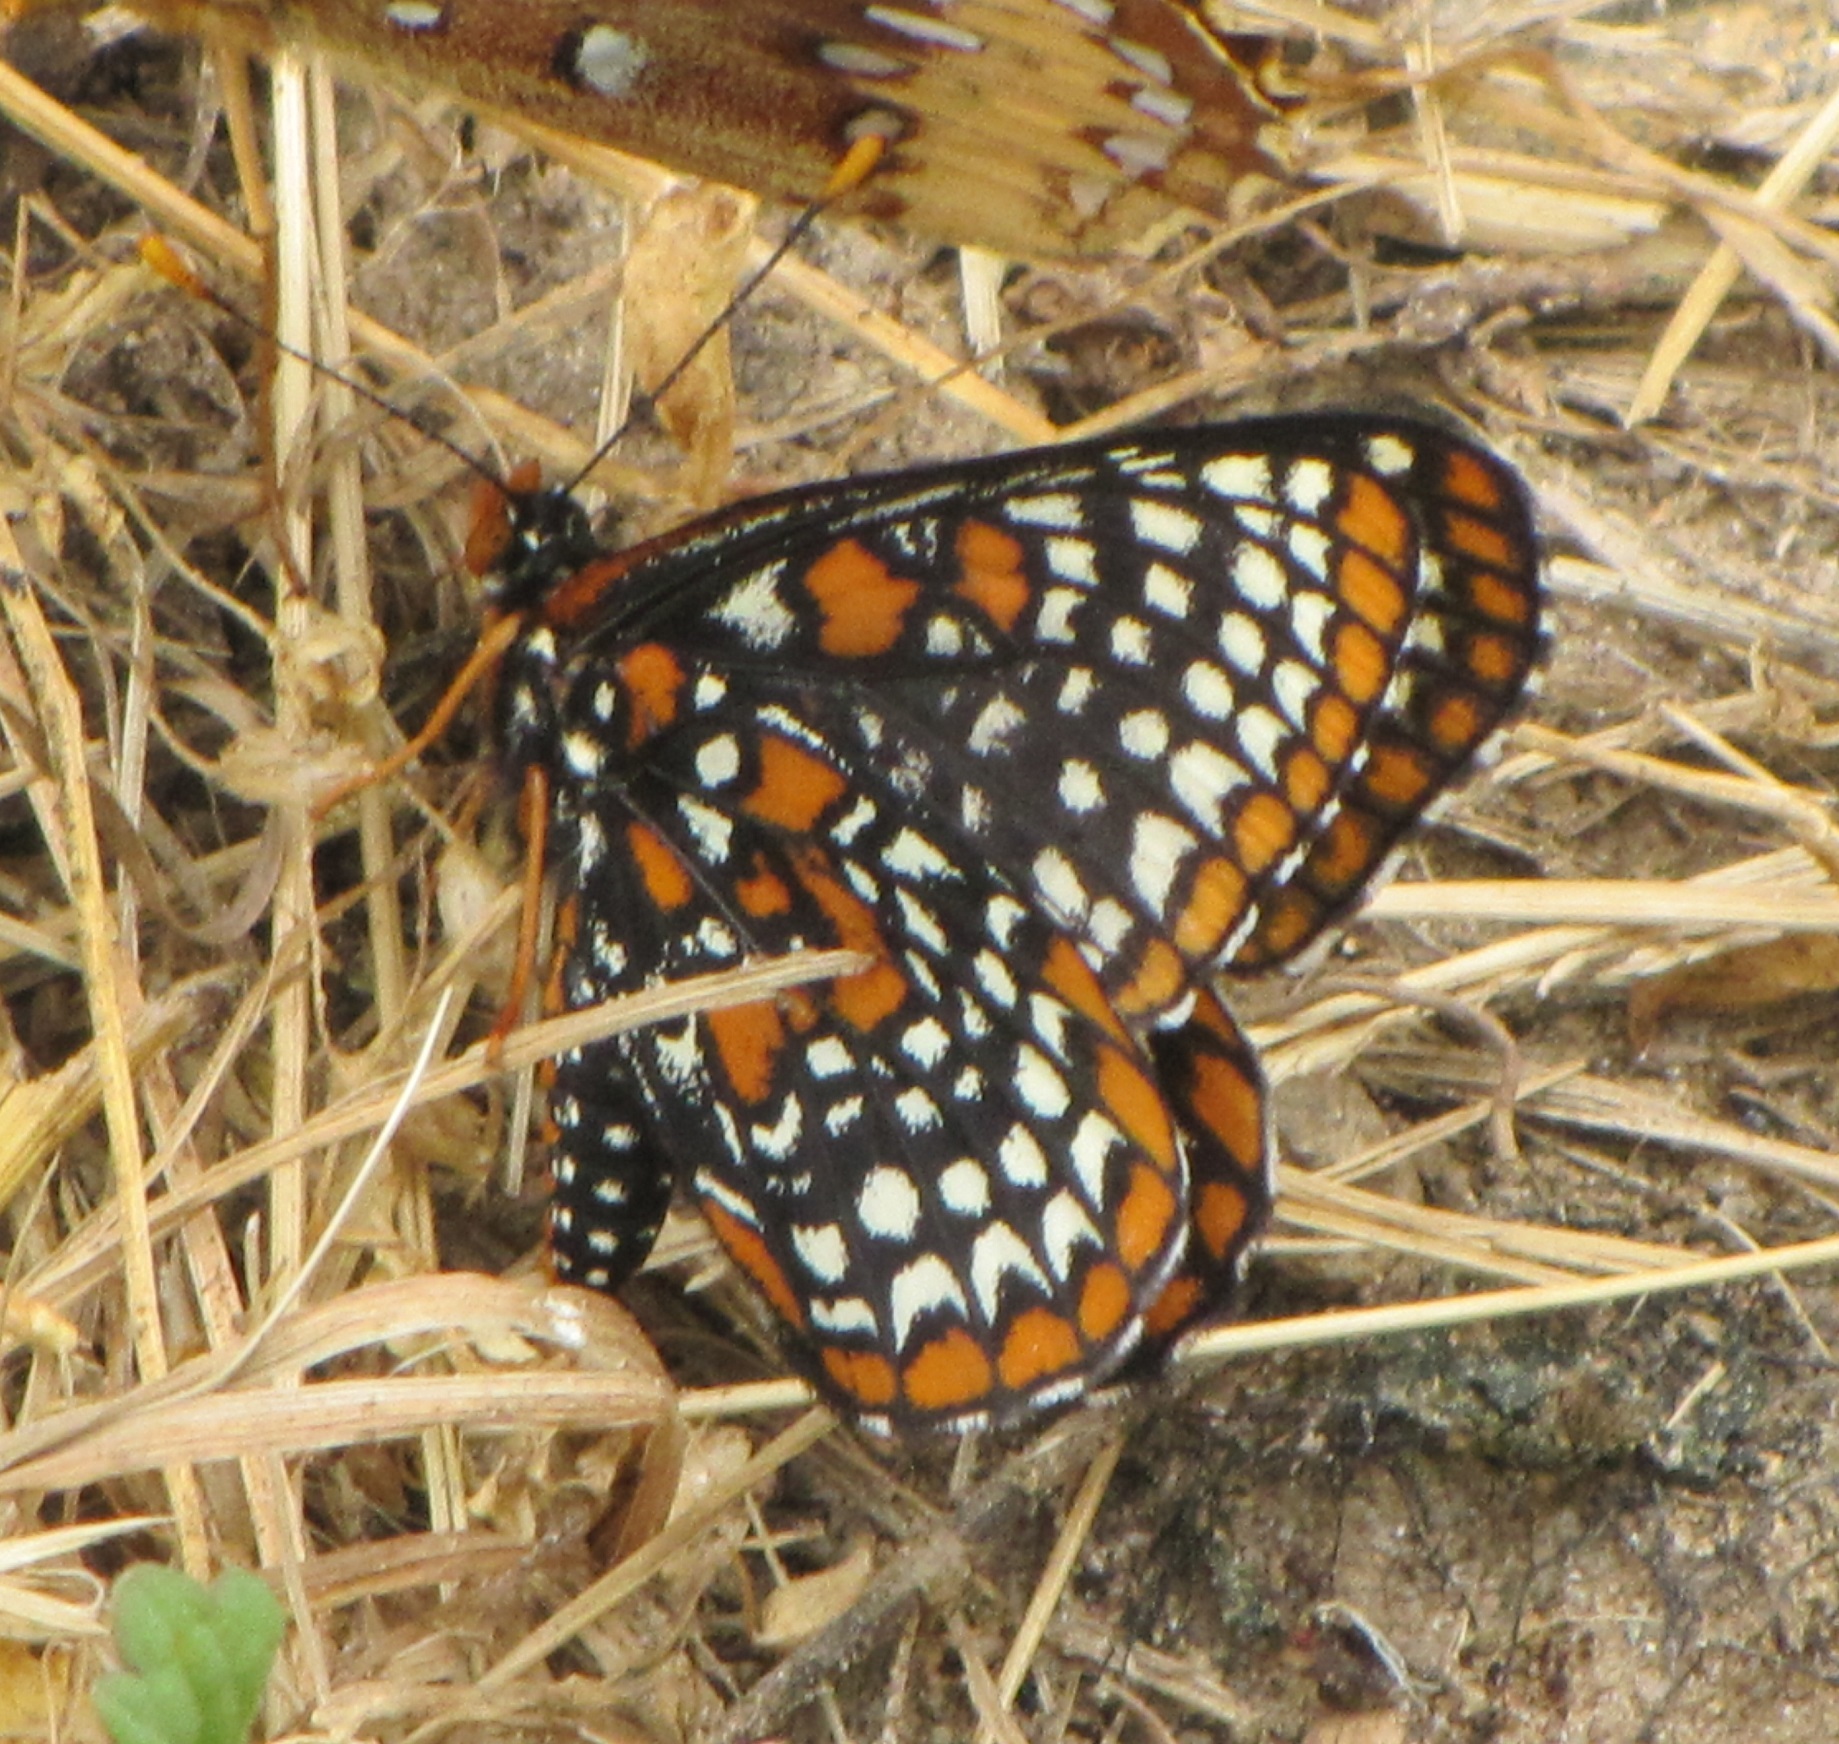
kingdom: Animalia
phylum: Arthropoda
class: Insecta
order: Lepidoptera
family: Nymphalidae
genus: Euphydryas
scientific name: Euphydryas phaeton
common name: Baltimore checkerspot
